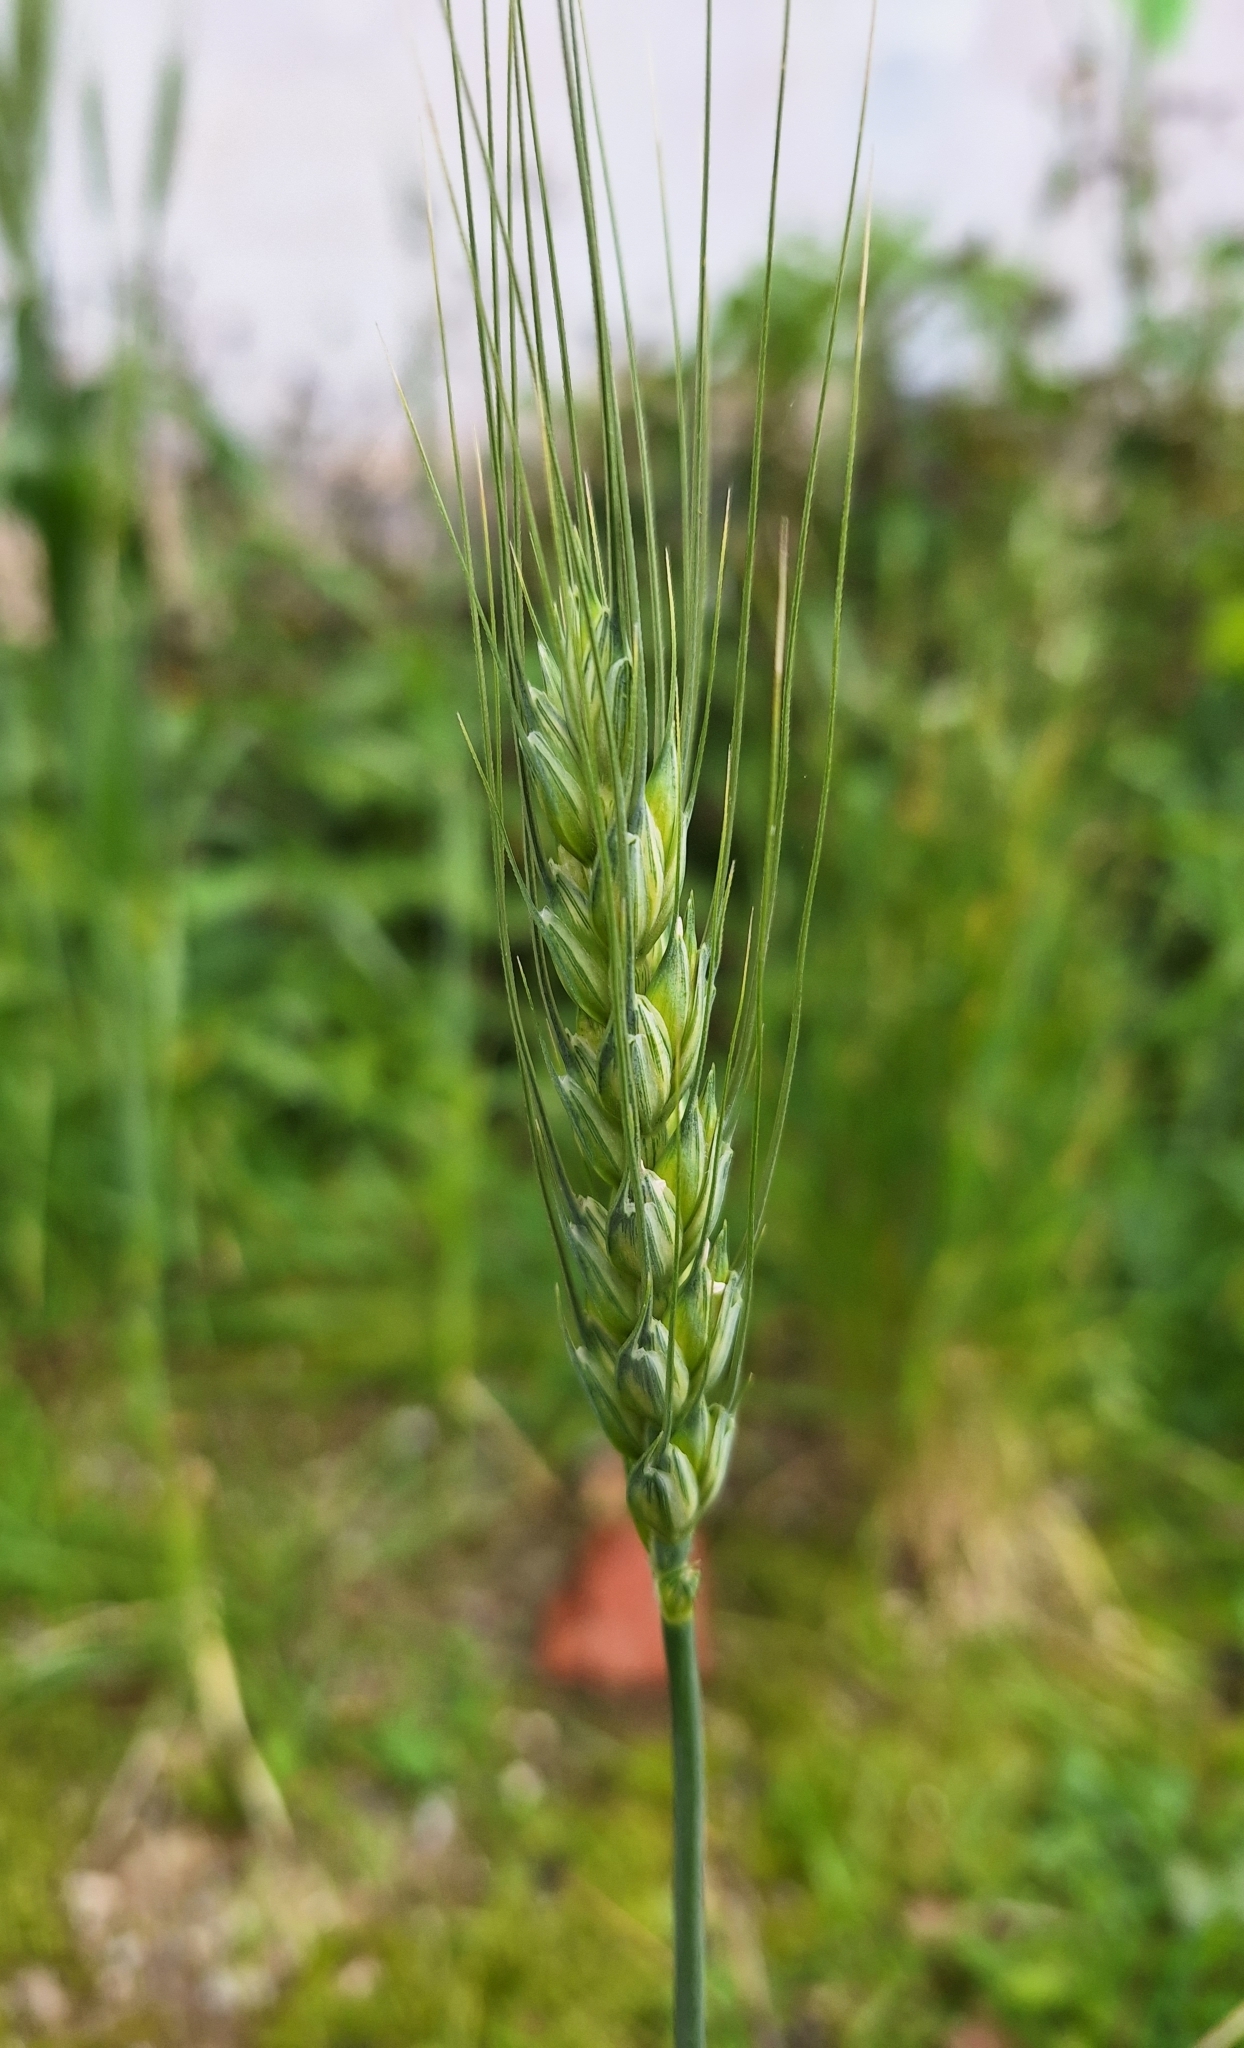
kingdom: Plantae
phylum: Tracheophyta
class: Liliopsida
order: Poales
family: Poaceae
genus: Triticum
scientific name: Triticum aestivum
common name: Common wheat
